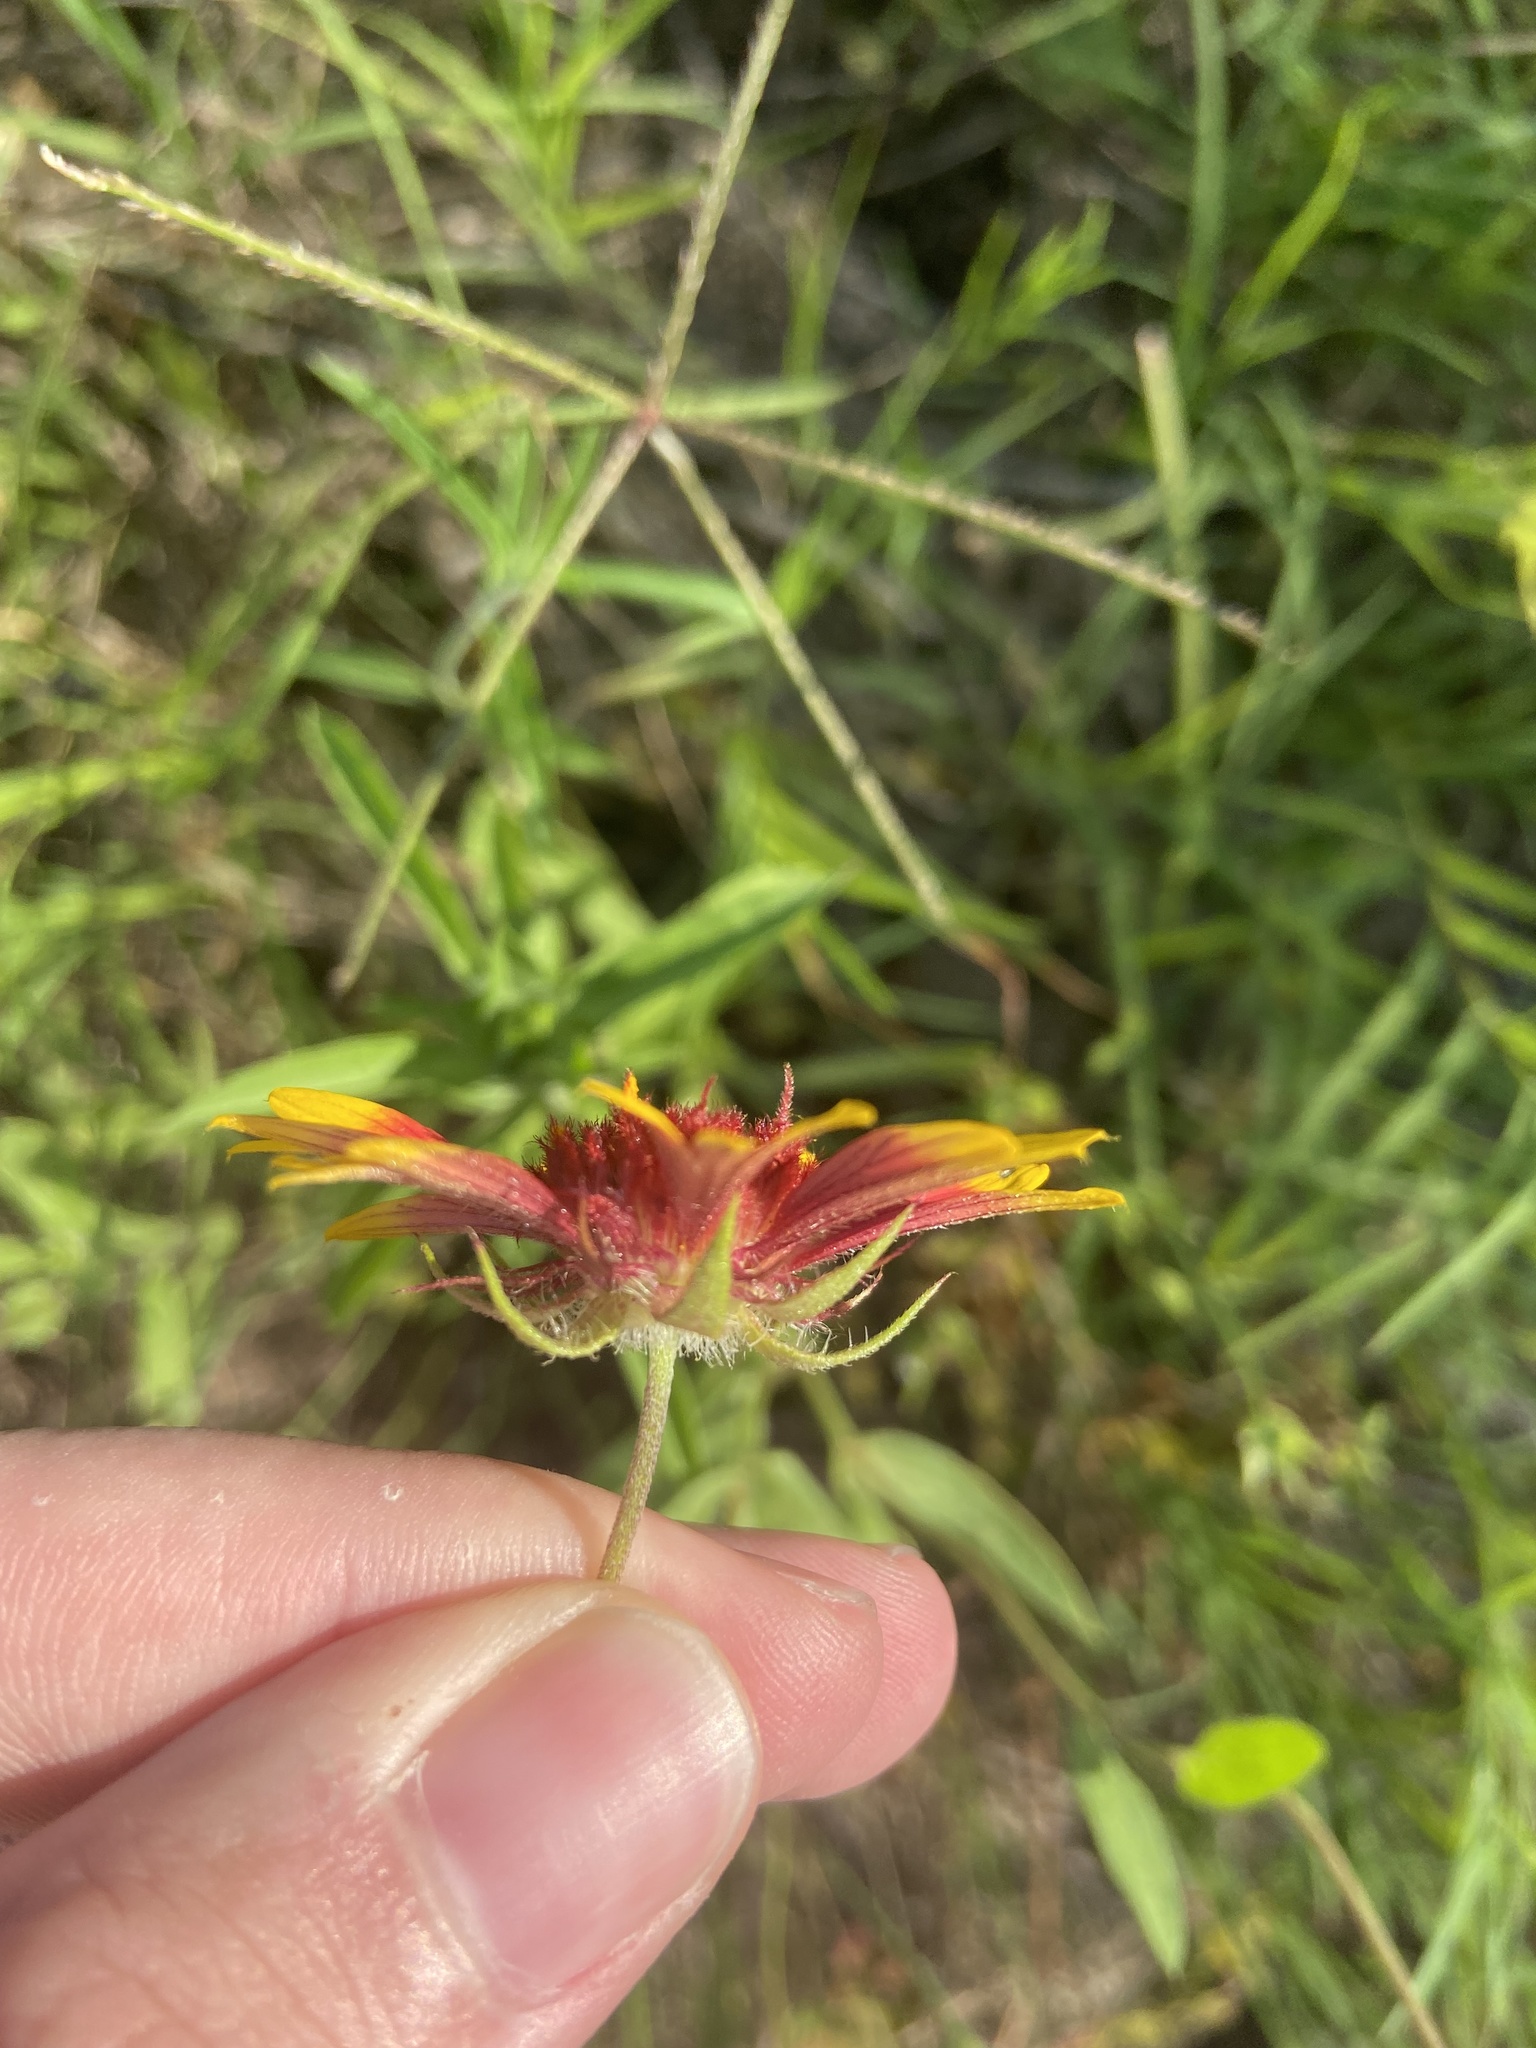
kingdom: Plantae
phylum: Tracheophyta
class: Magnoliopsida
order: Asterales
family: Asteraceae
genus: Gaillardia
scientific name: Gaillardia pulchella
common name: Firewheel
